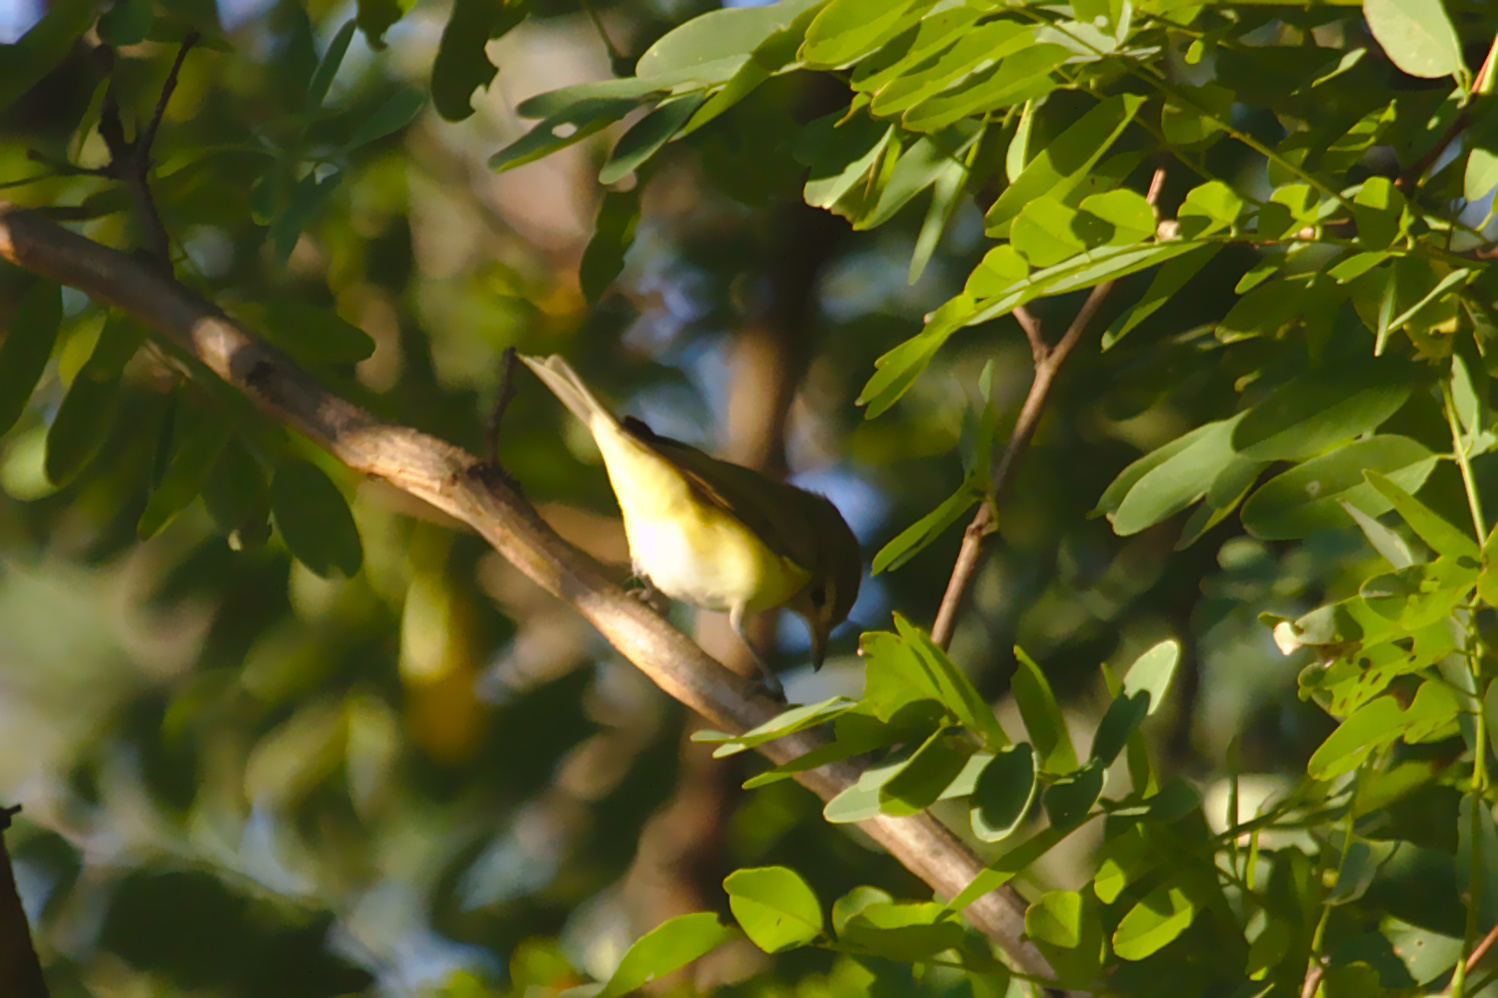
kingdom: Animalia
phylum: Chordata
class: Aves
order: Passeriformes
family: Vireonidae
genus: Vireo
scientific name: Vireo gilvus
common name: Warbling vireo
